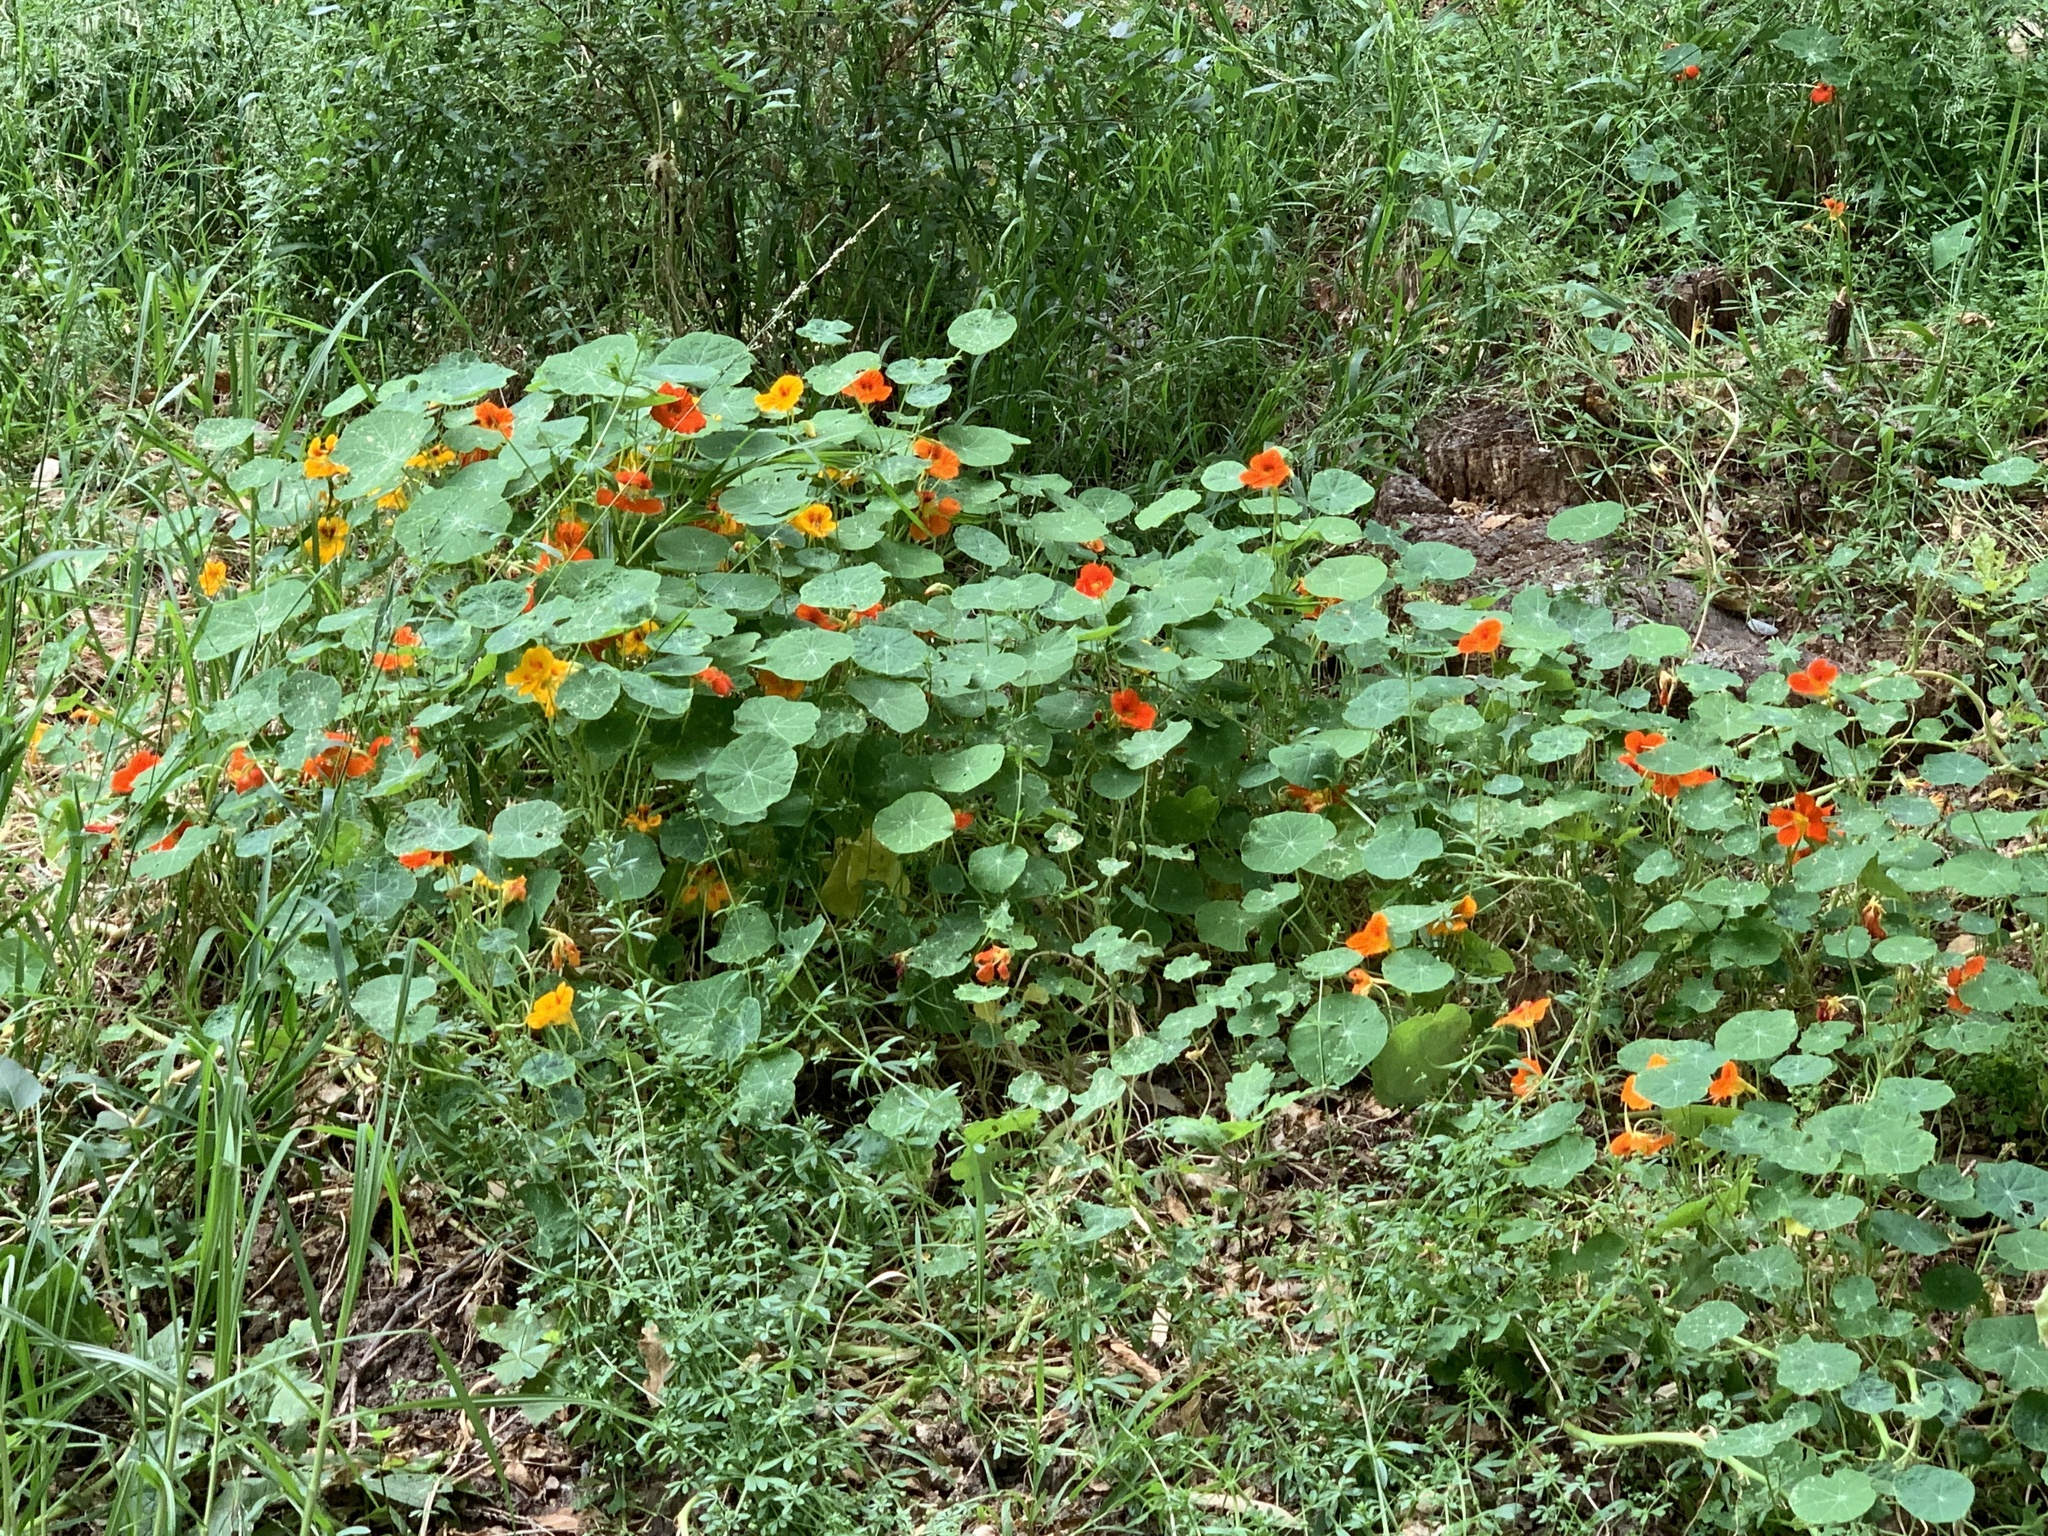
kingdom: Plantae
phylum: Tracheophyta
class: Magnoliopsida
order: Brassicales
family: Tropaeolaceae
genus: Tropaeolum
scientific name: Tropaeolum majus
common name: Nasturtium
